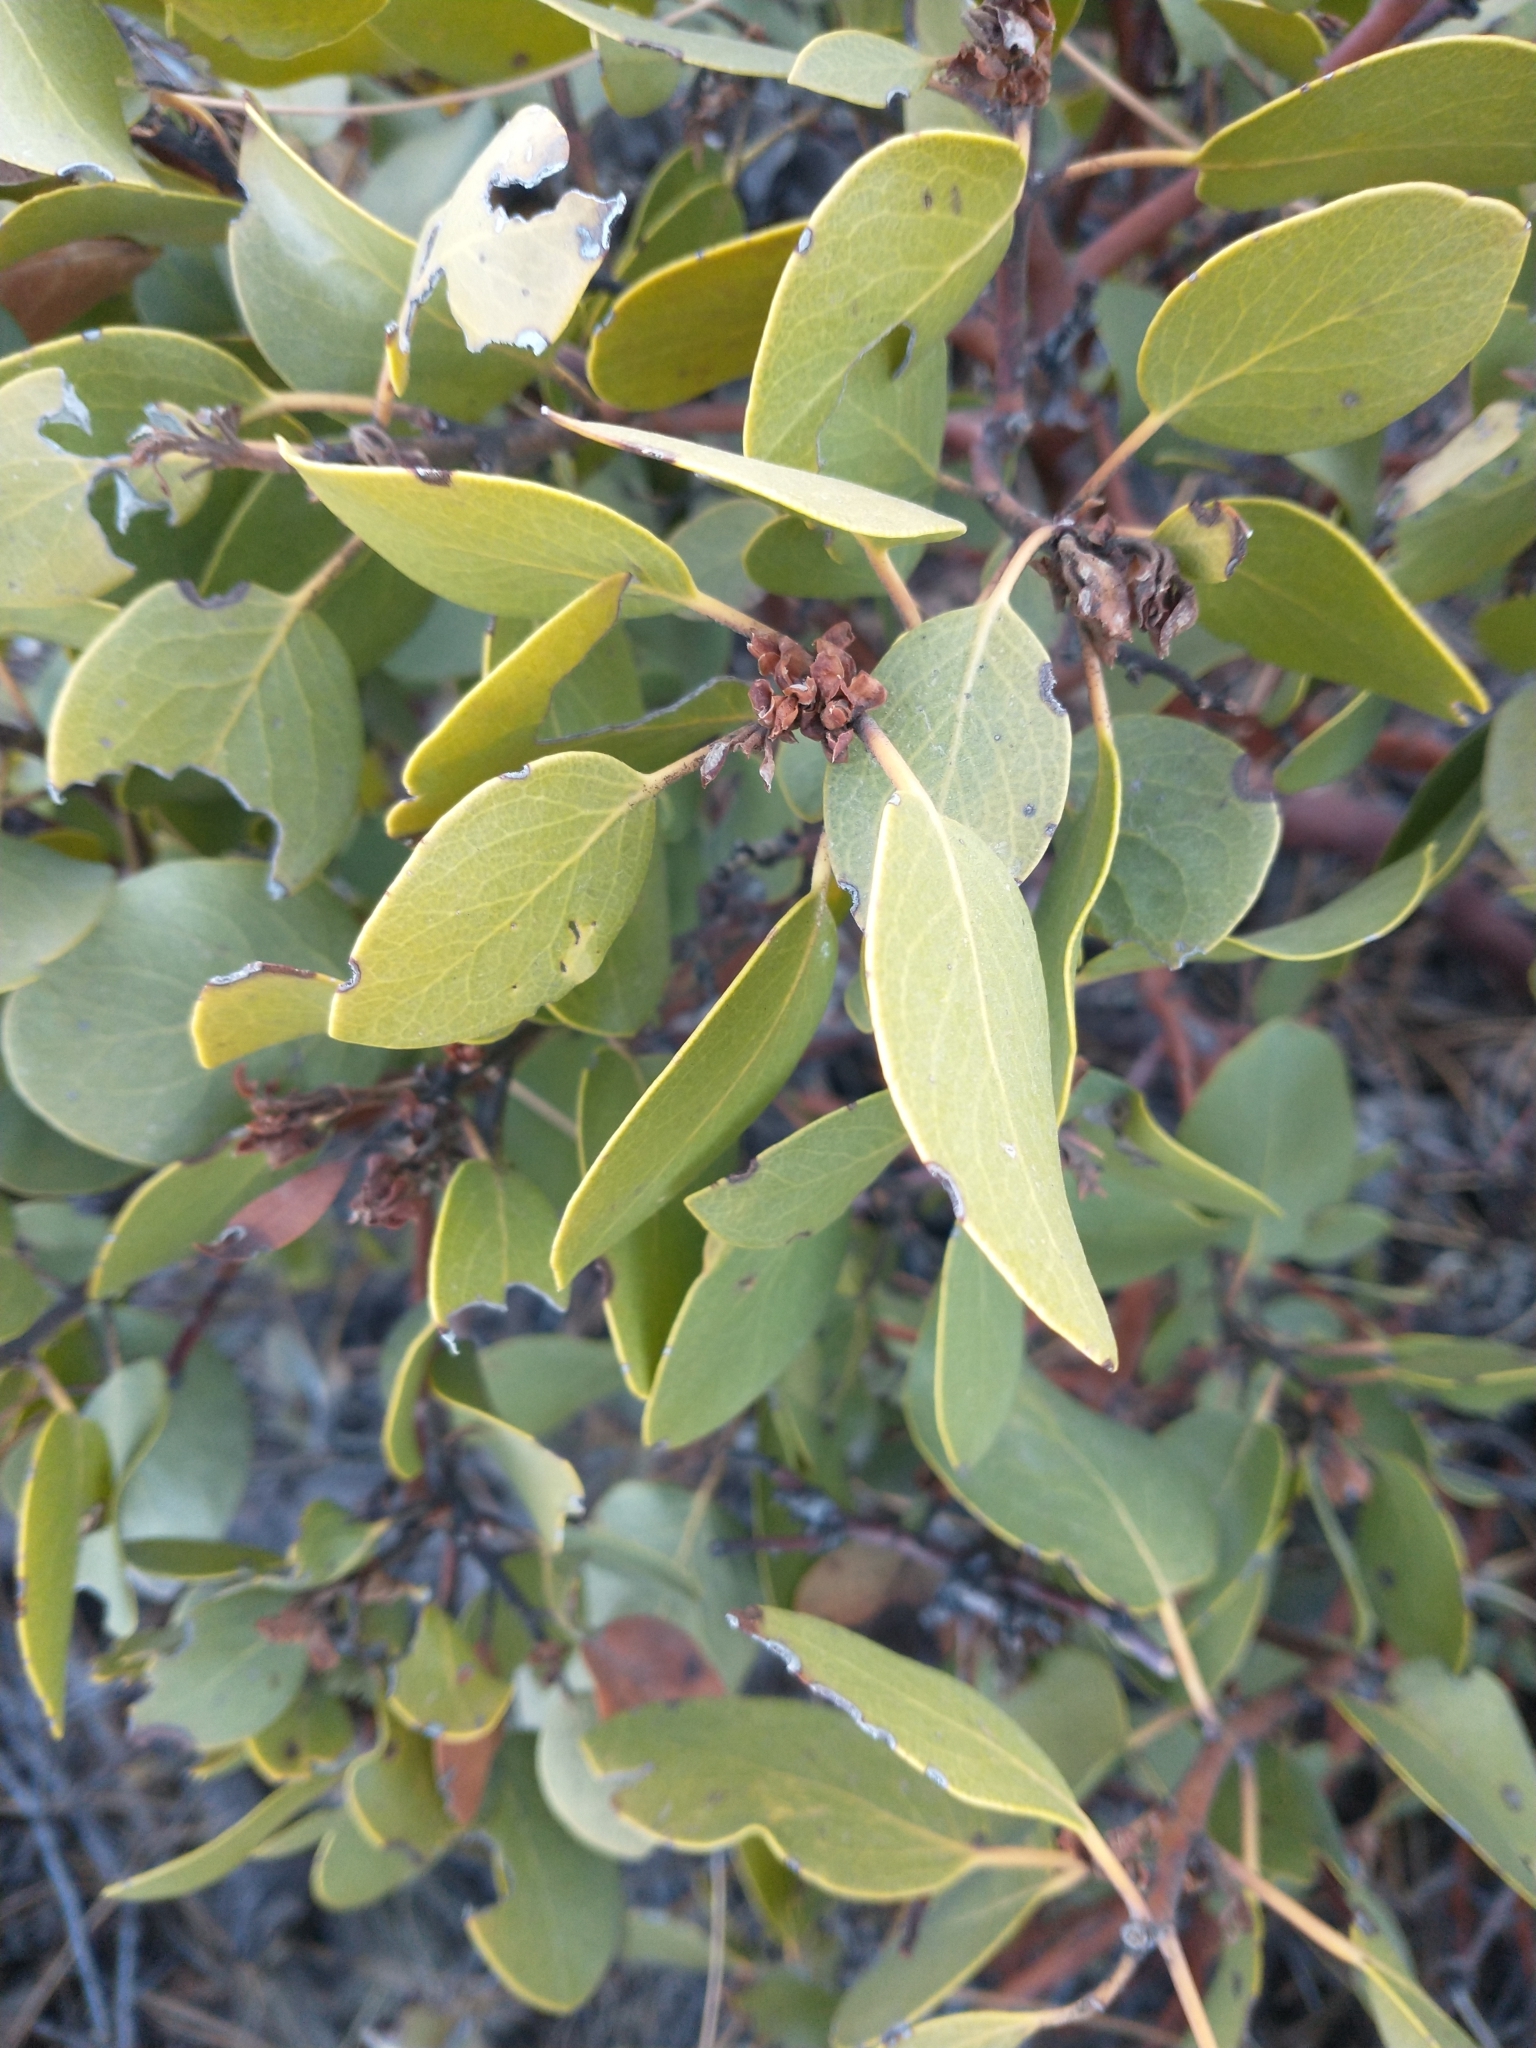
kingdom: Plantae
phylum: Tracheophyta
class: Magnoliopsida
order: Ericales
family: Ericaceae
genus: Arctostaphylos
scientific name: Arctostaphylos patula
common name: Green-leaf manzanita
